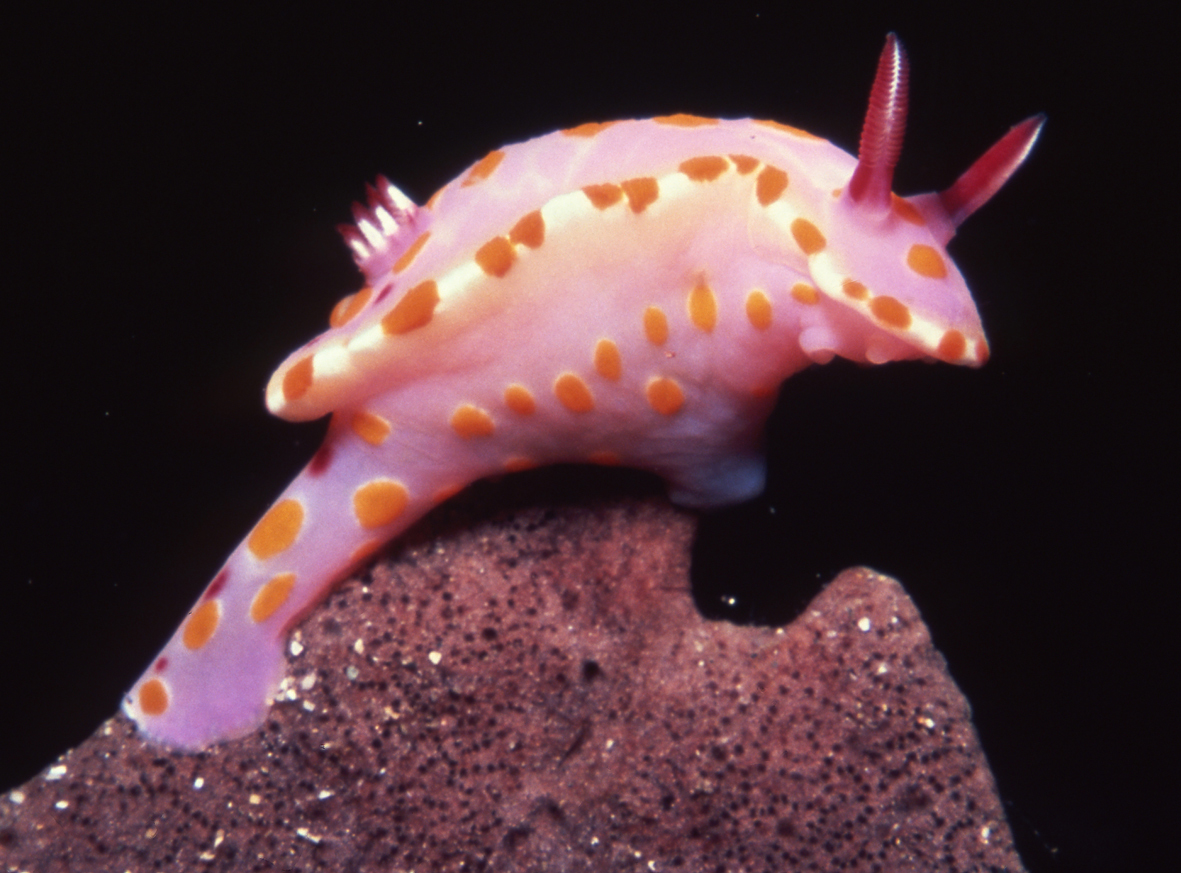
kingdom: Animalia
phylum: Mollusca
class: Gastropoda
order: Nudibranchia
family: Chromodorididae
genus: Ceratosoma
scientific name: Ceratosoma amoenum
